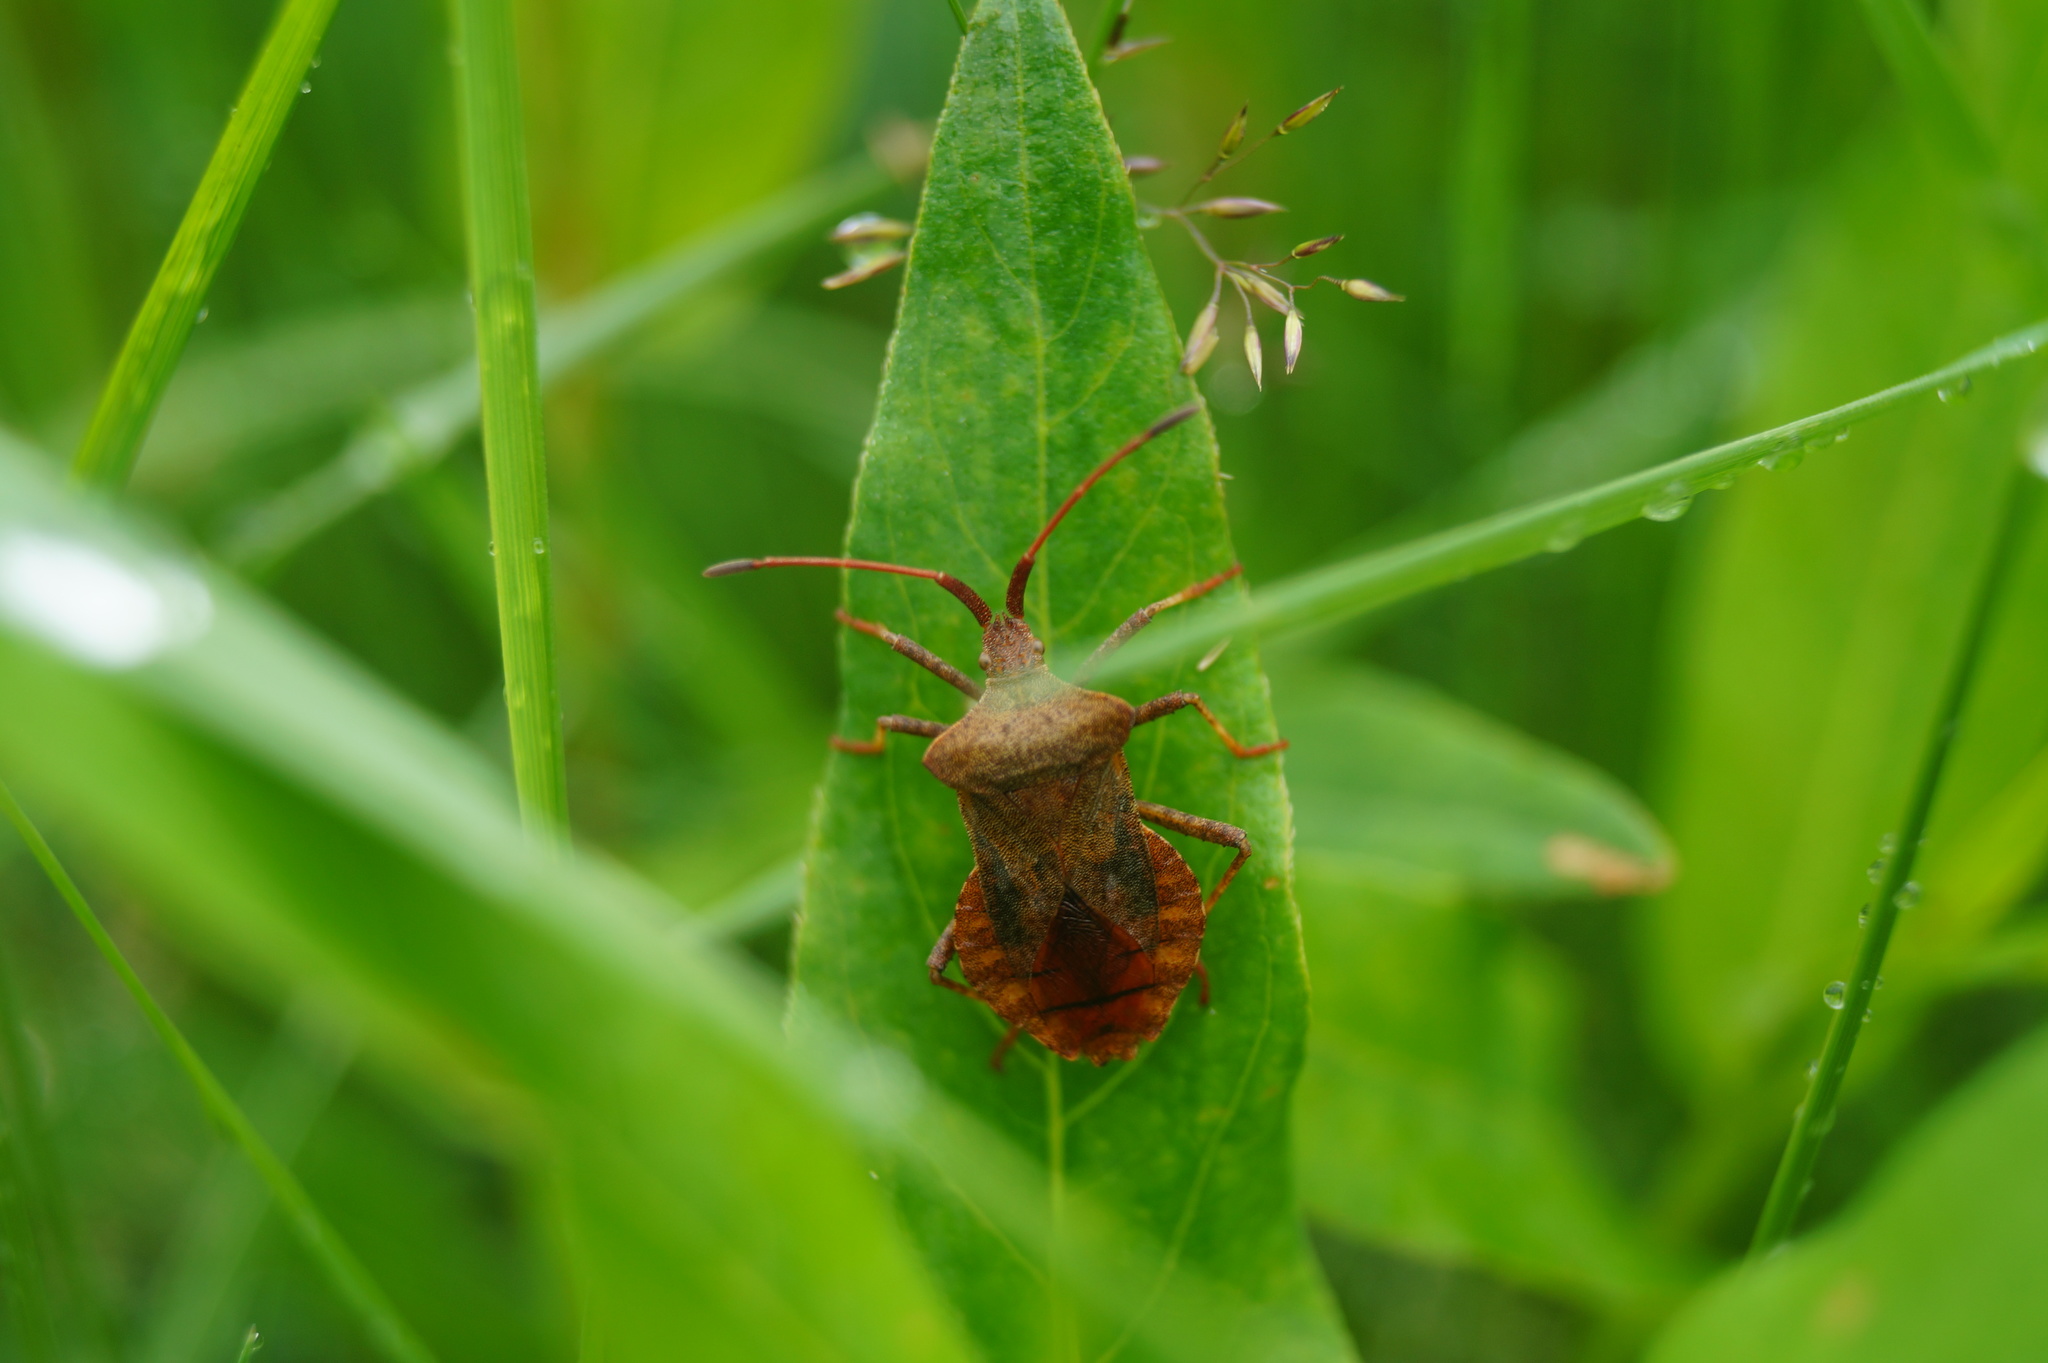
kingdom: Animalia
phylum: Arthropoda
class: Insecta
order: Hemiptera
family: Coreidae
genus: Coreus
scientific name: Coreus marginatus
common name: Dock bug
